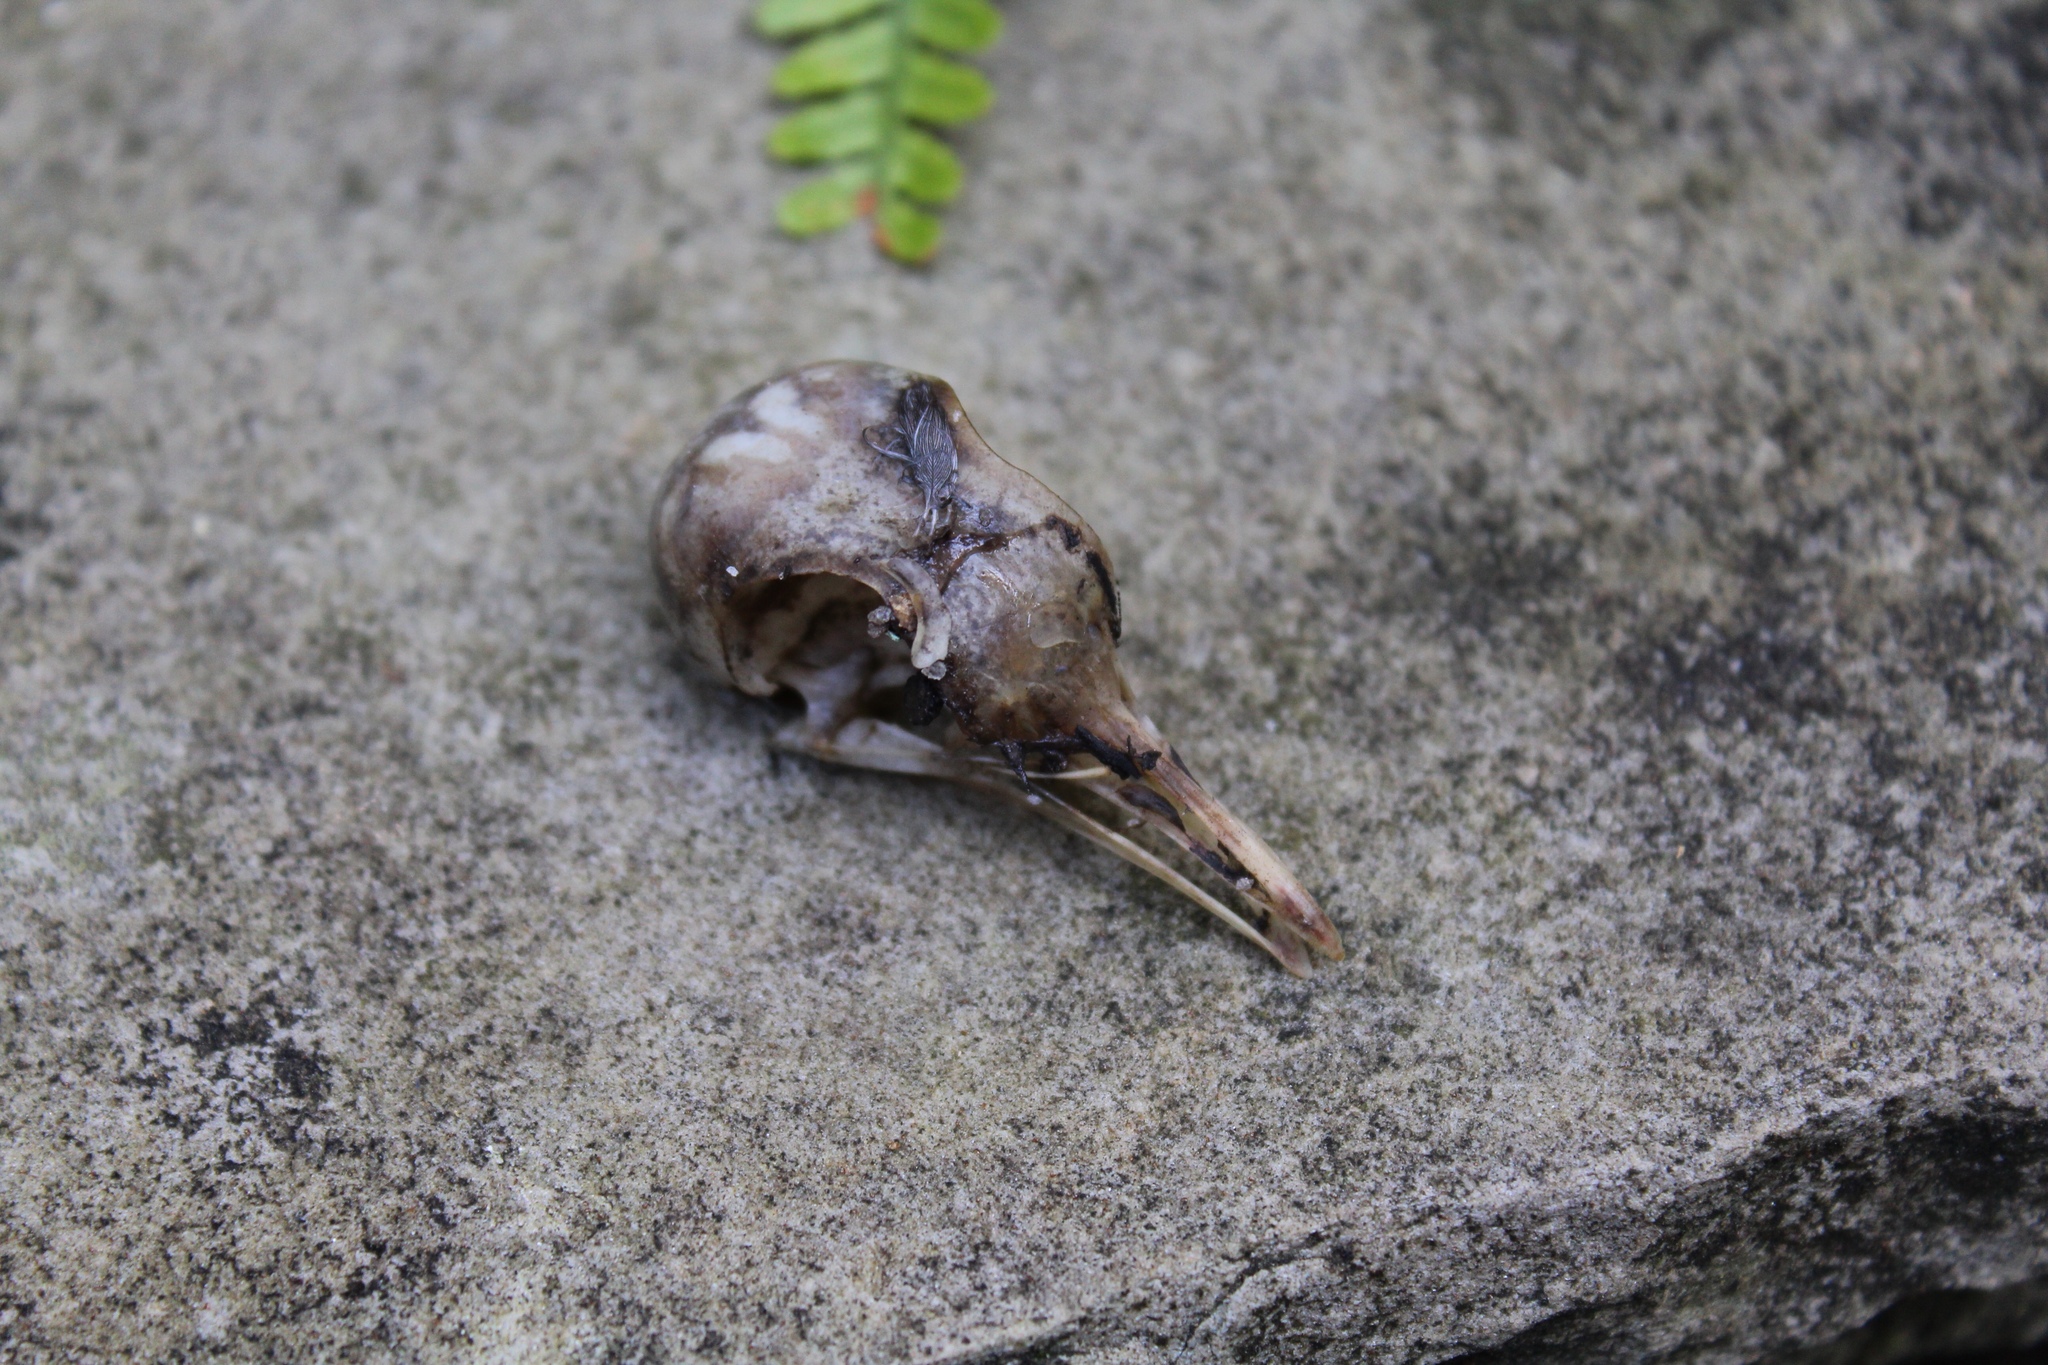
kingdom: Animalia
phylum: Chordata
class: Aves
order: Columbiformes
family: Columbidae
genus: Zenaida
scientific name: Zenaida macroura
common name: Mourning dove
